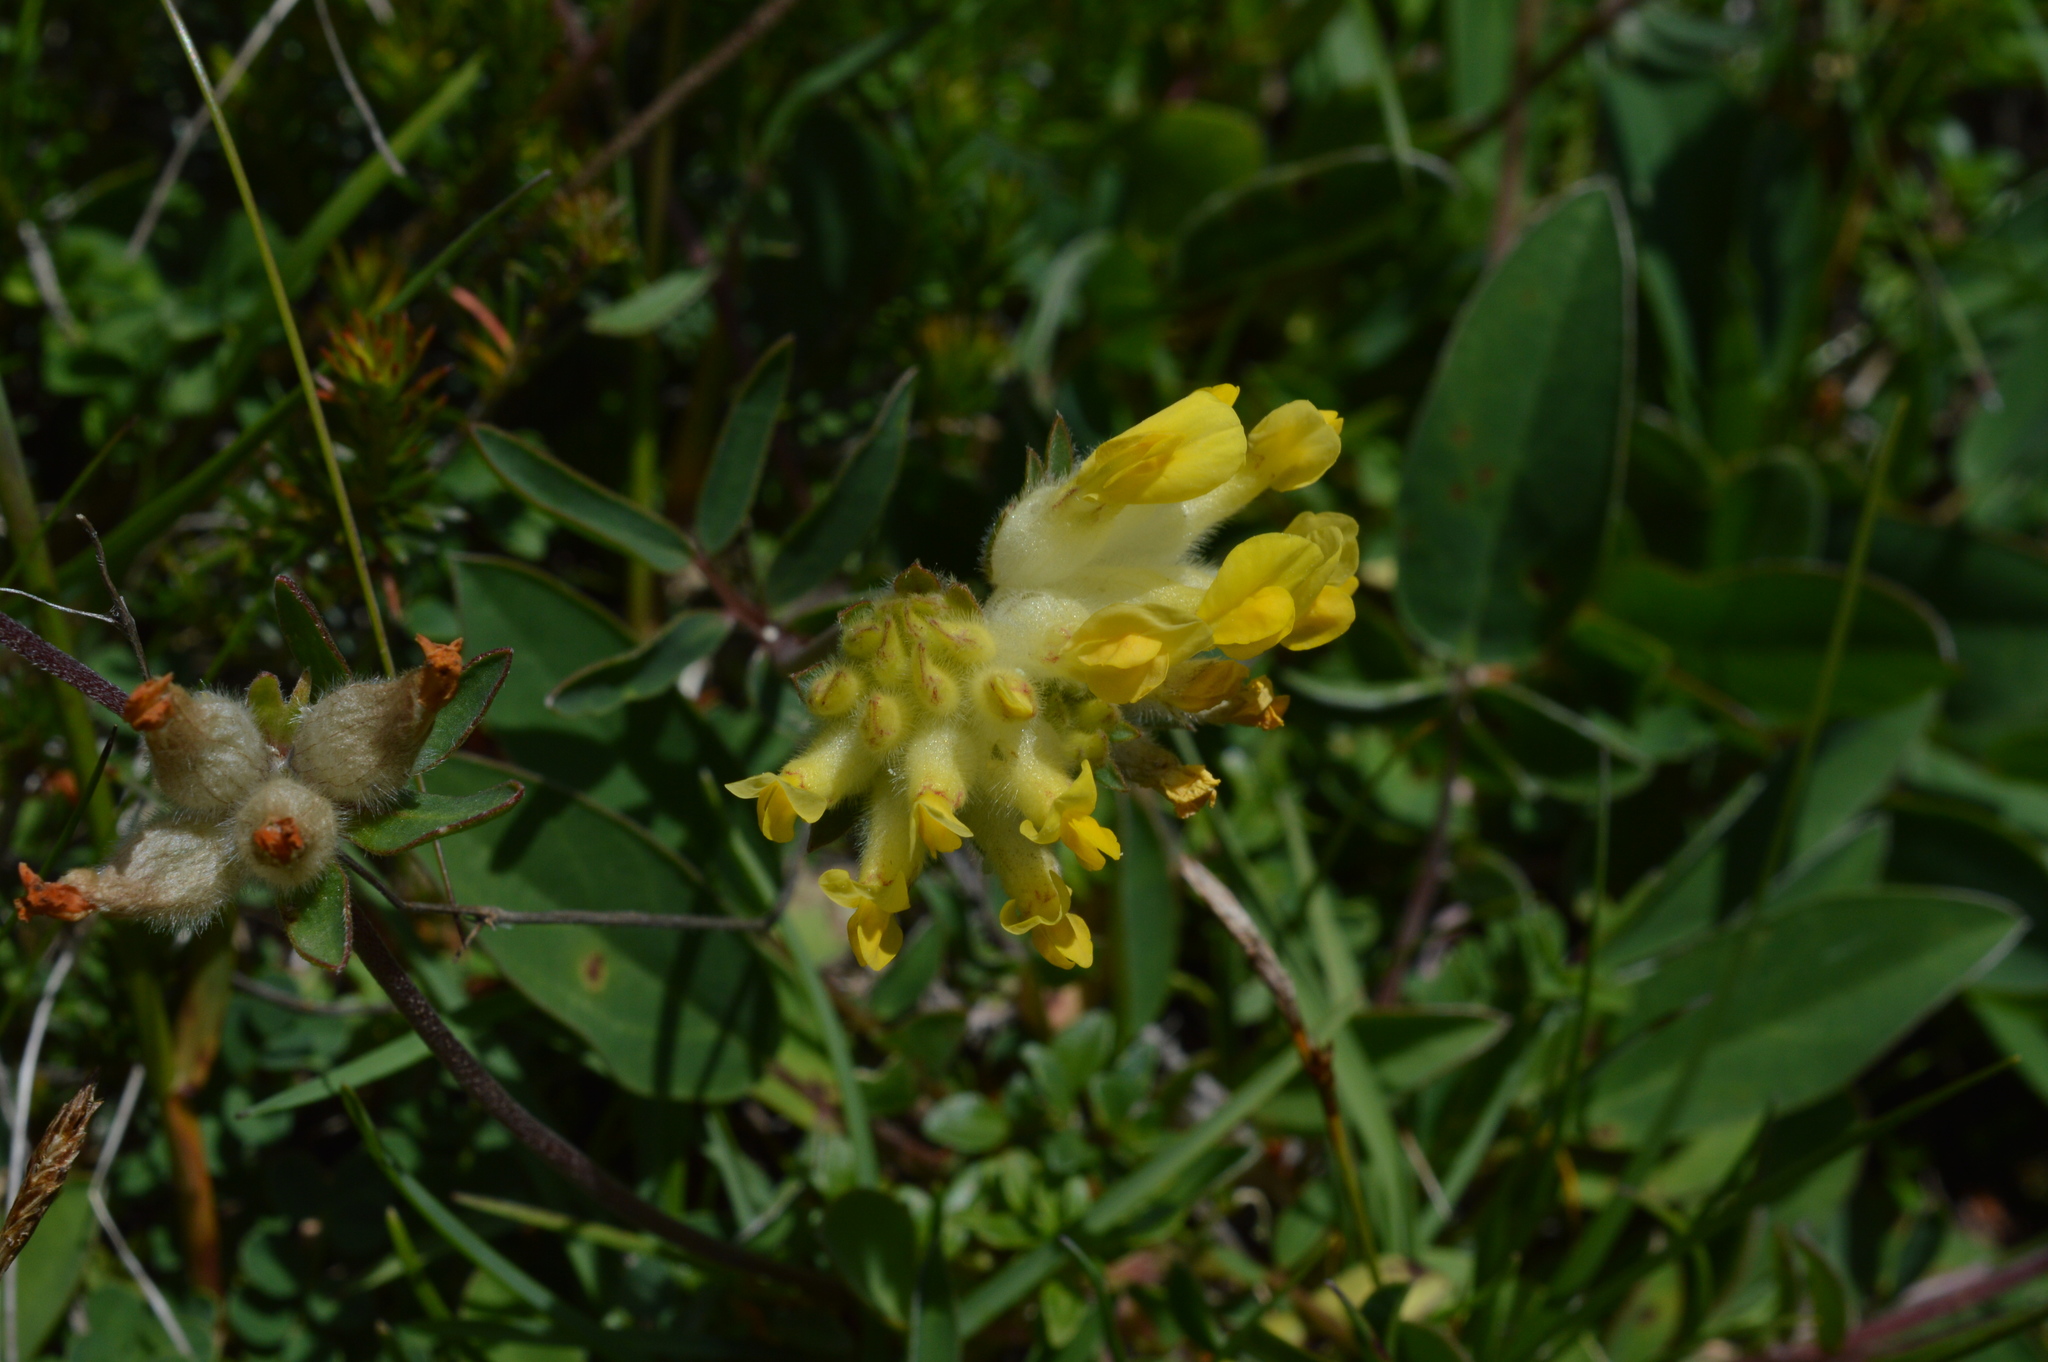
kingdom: Plantae
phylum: Tracheophyta
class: Magnoliopsida
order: Fabales
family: Fabaceae
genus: Anthyllis
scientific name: Anthyllis vulneraria
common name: Kidney vetch
